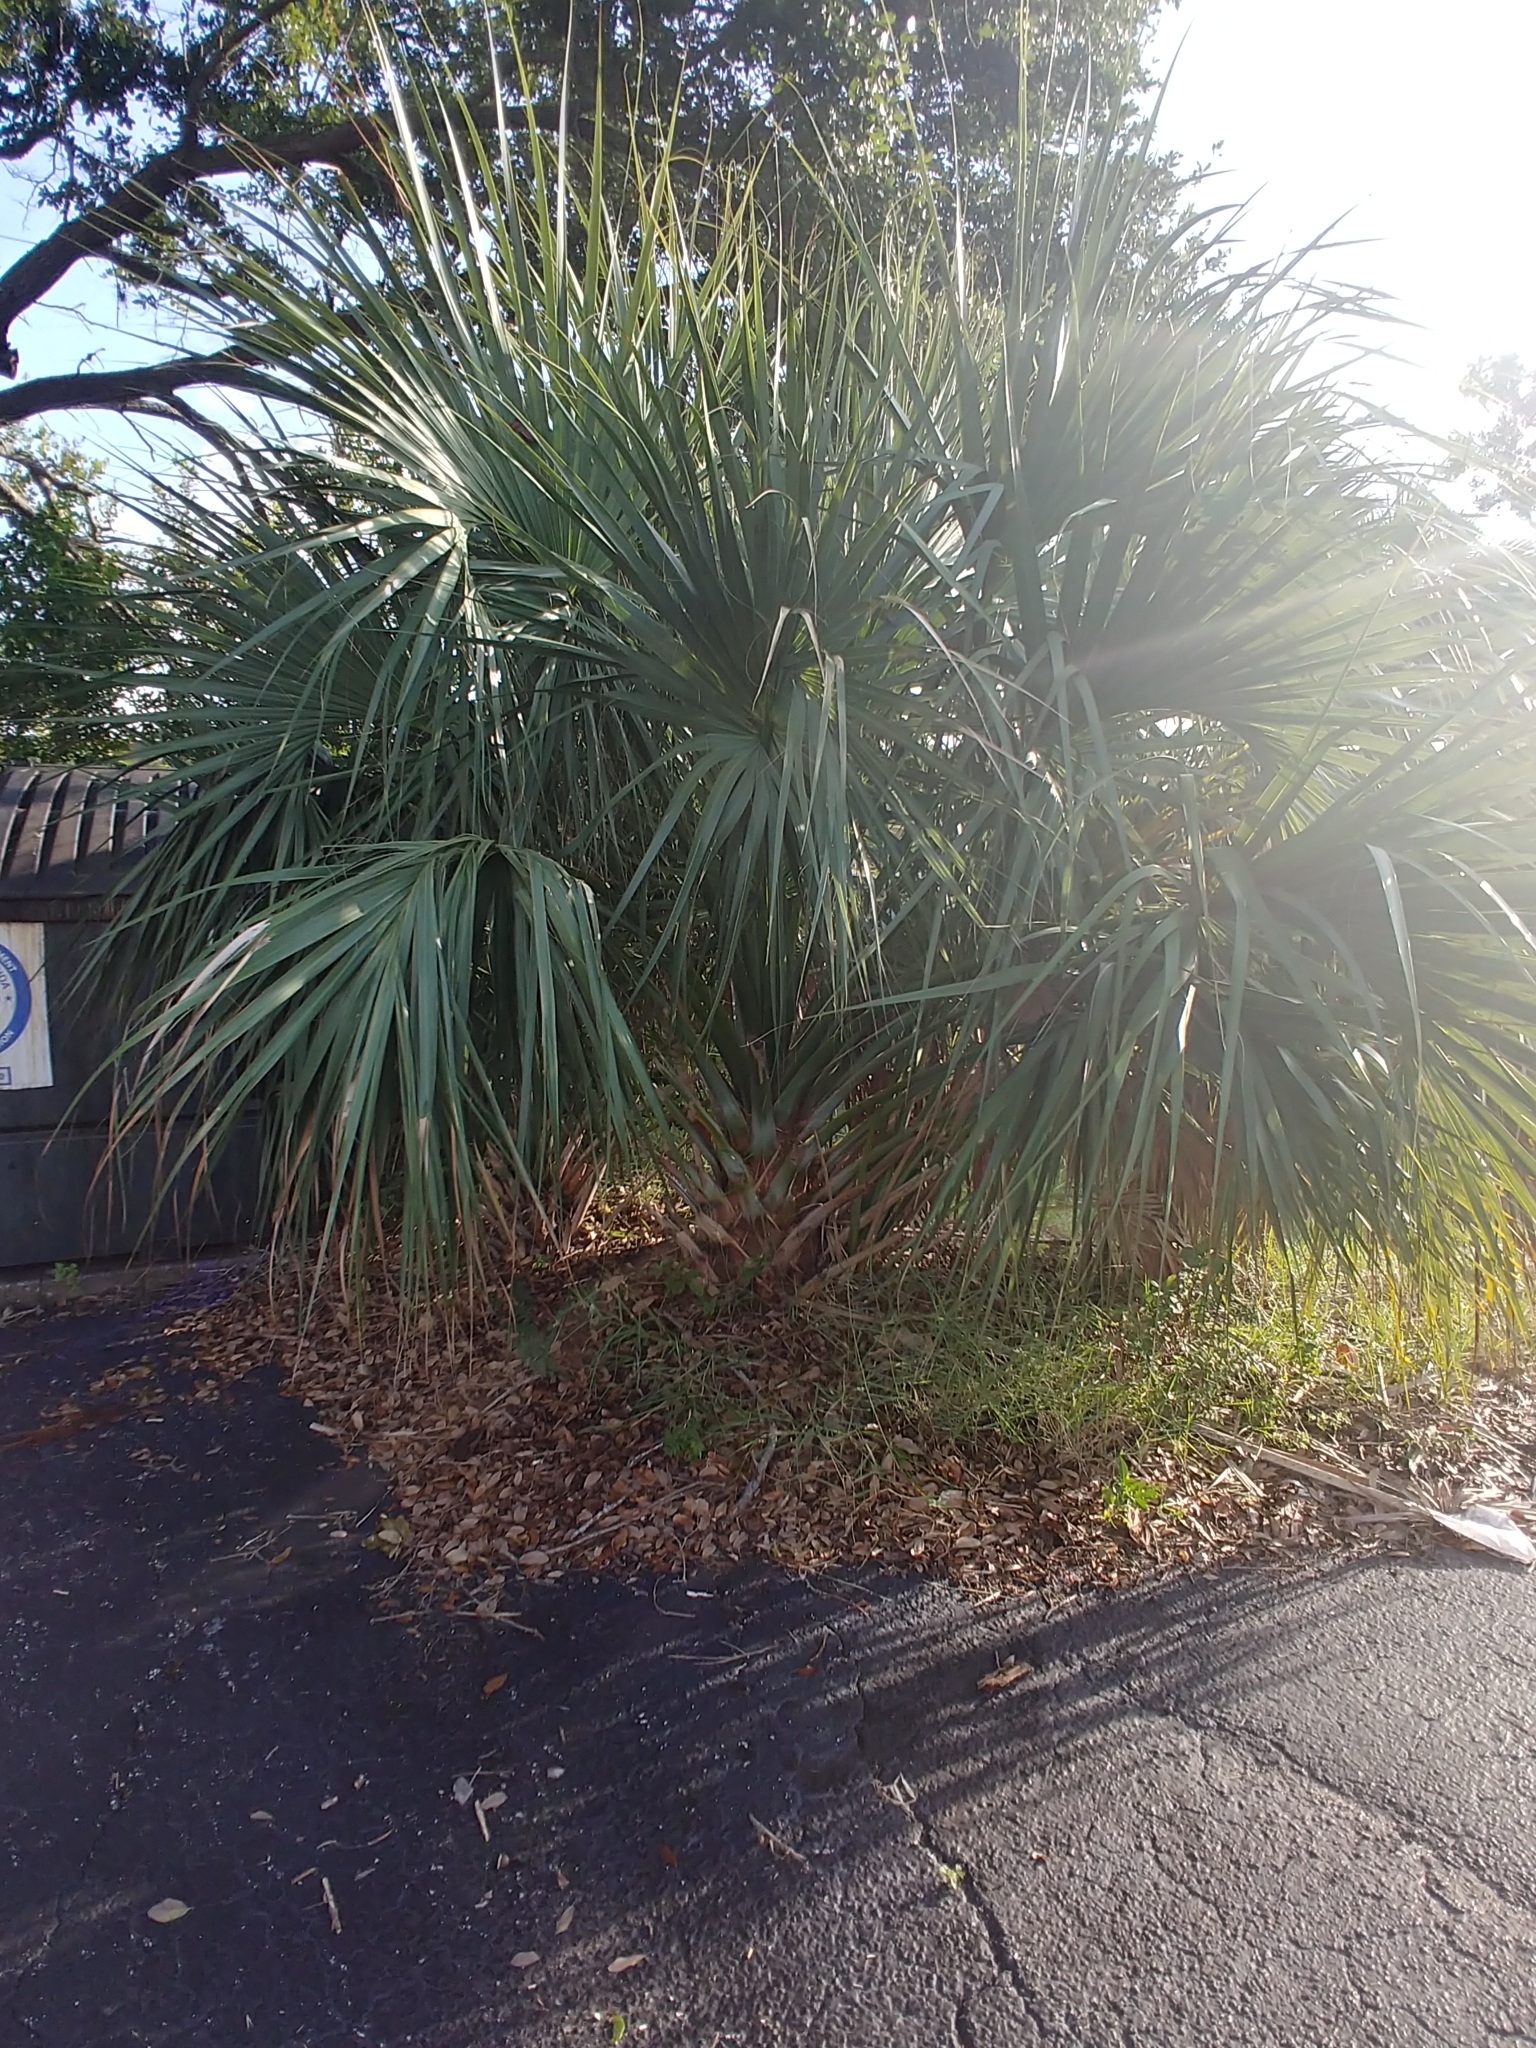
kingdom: Plantae
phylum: Tracheophyta
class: Liliopsida
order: Arecales
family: Arecaceae
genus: Sabal
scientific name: Sabal palmetto
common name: Blue palmetto
